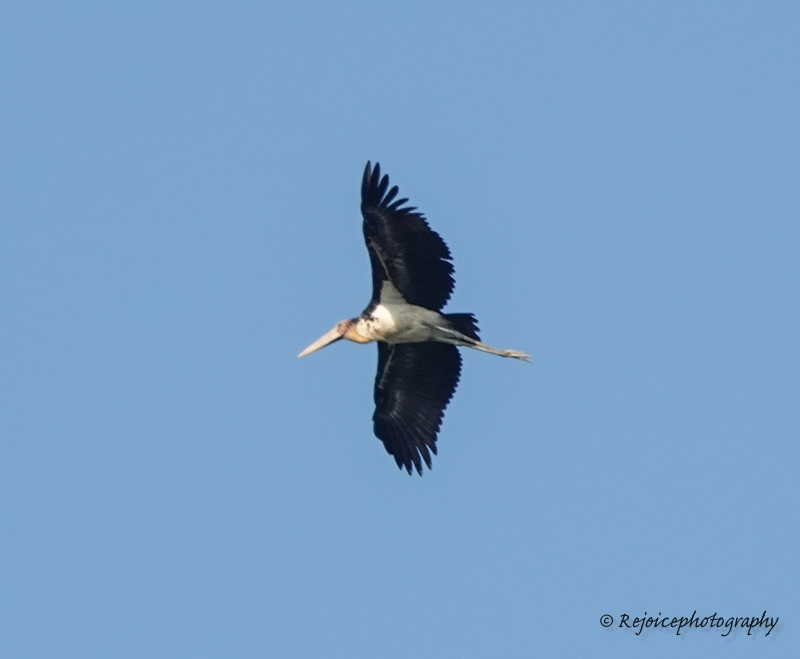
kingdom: Animalia
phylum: Chordata
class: Aves
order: Ciconiiformes
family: Ciconiidae
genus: Leptoptilos
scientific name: Leptoptilos javanicus
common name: Lesser adjutant
